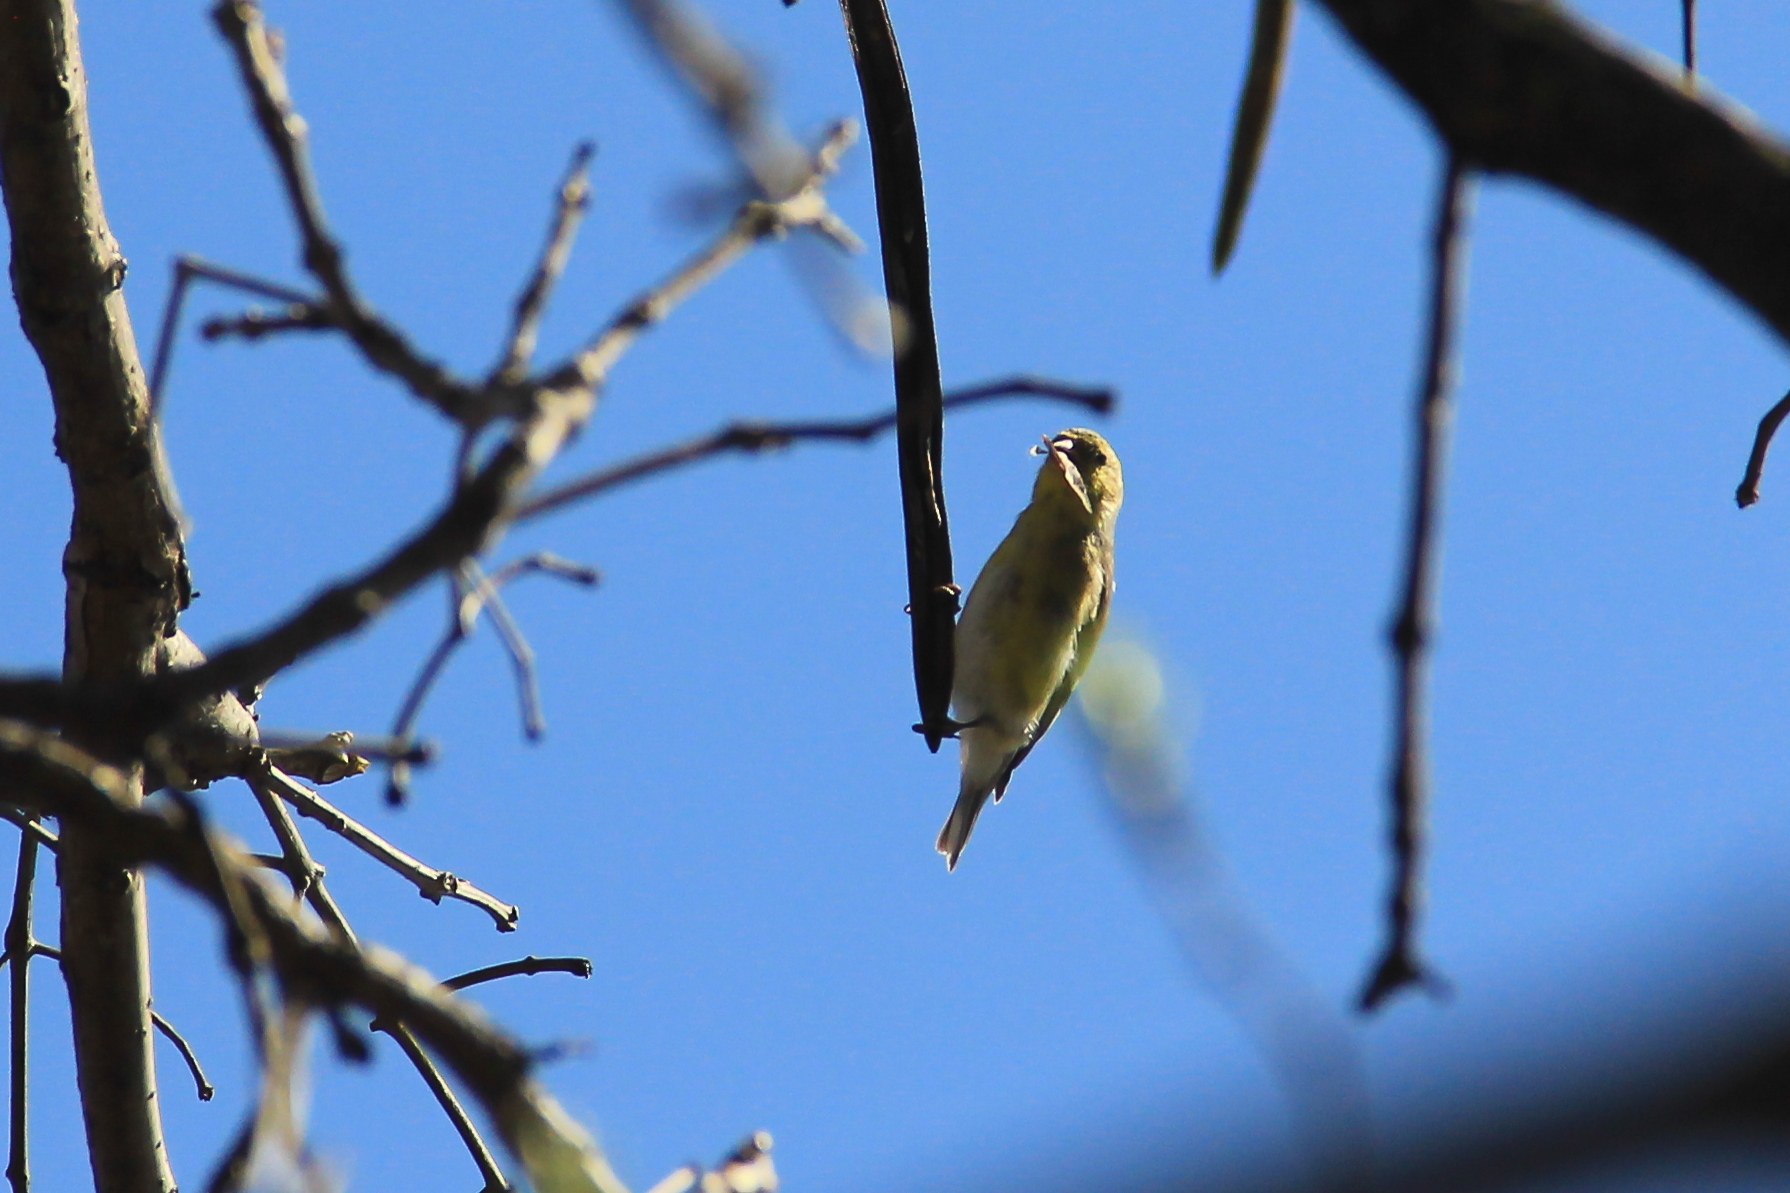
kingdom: Animalia
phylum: Chordata
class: Aves
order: Passeriformes
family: Fringillidae
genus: Spinus
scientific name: Spinus tristis
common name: American goldfinch
